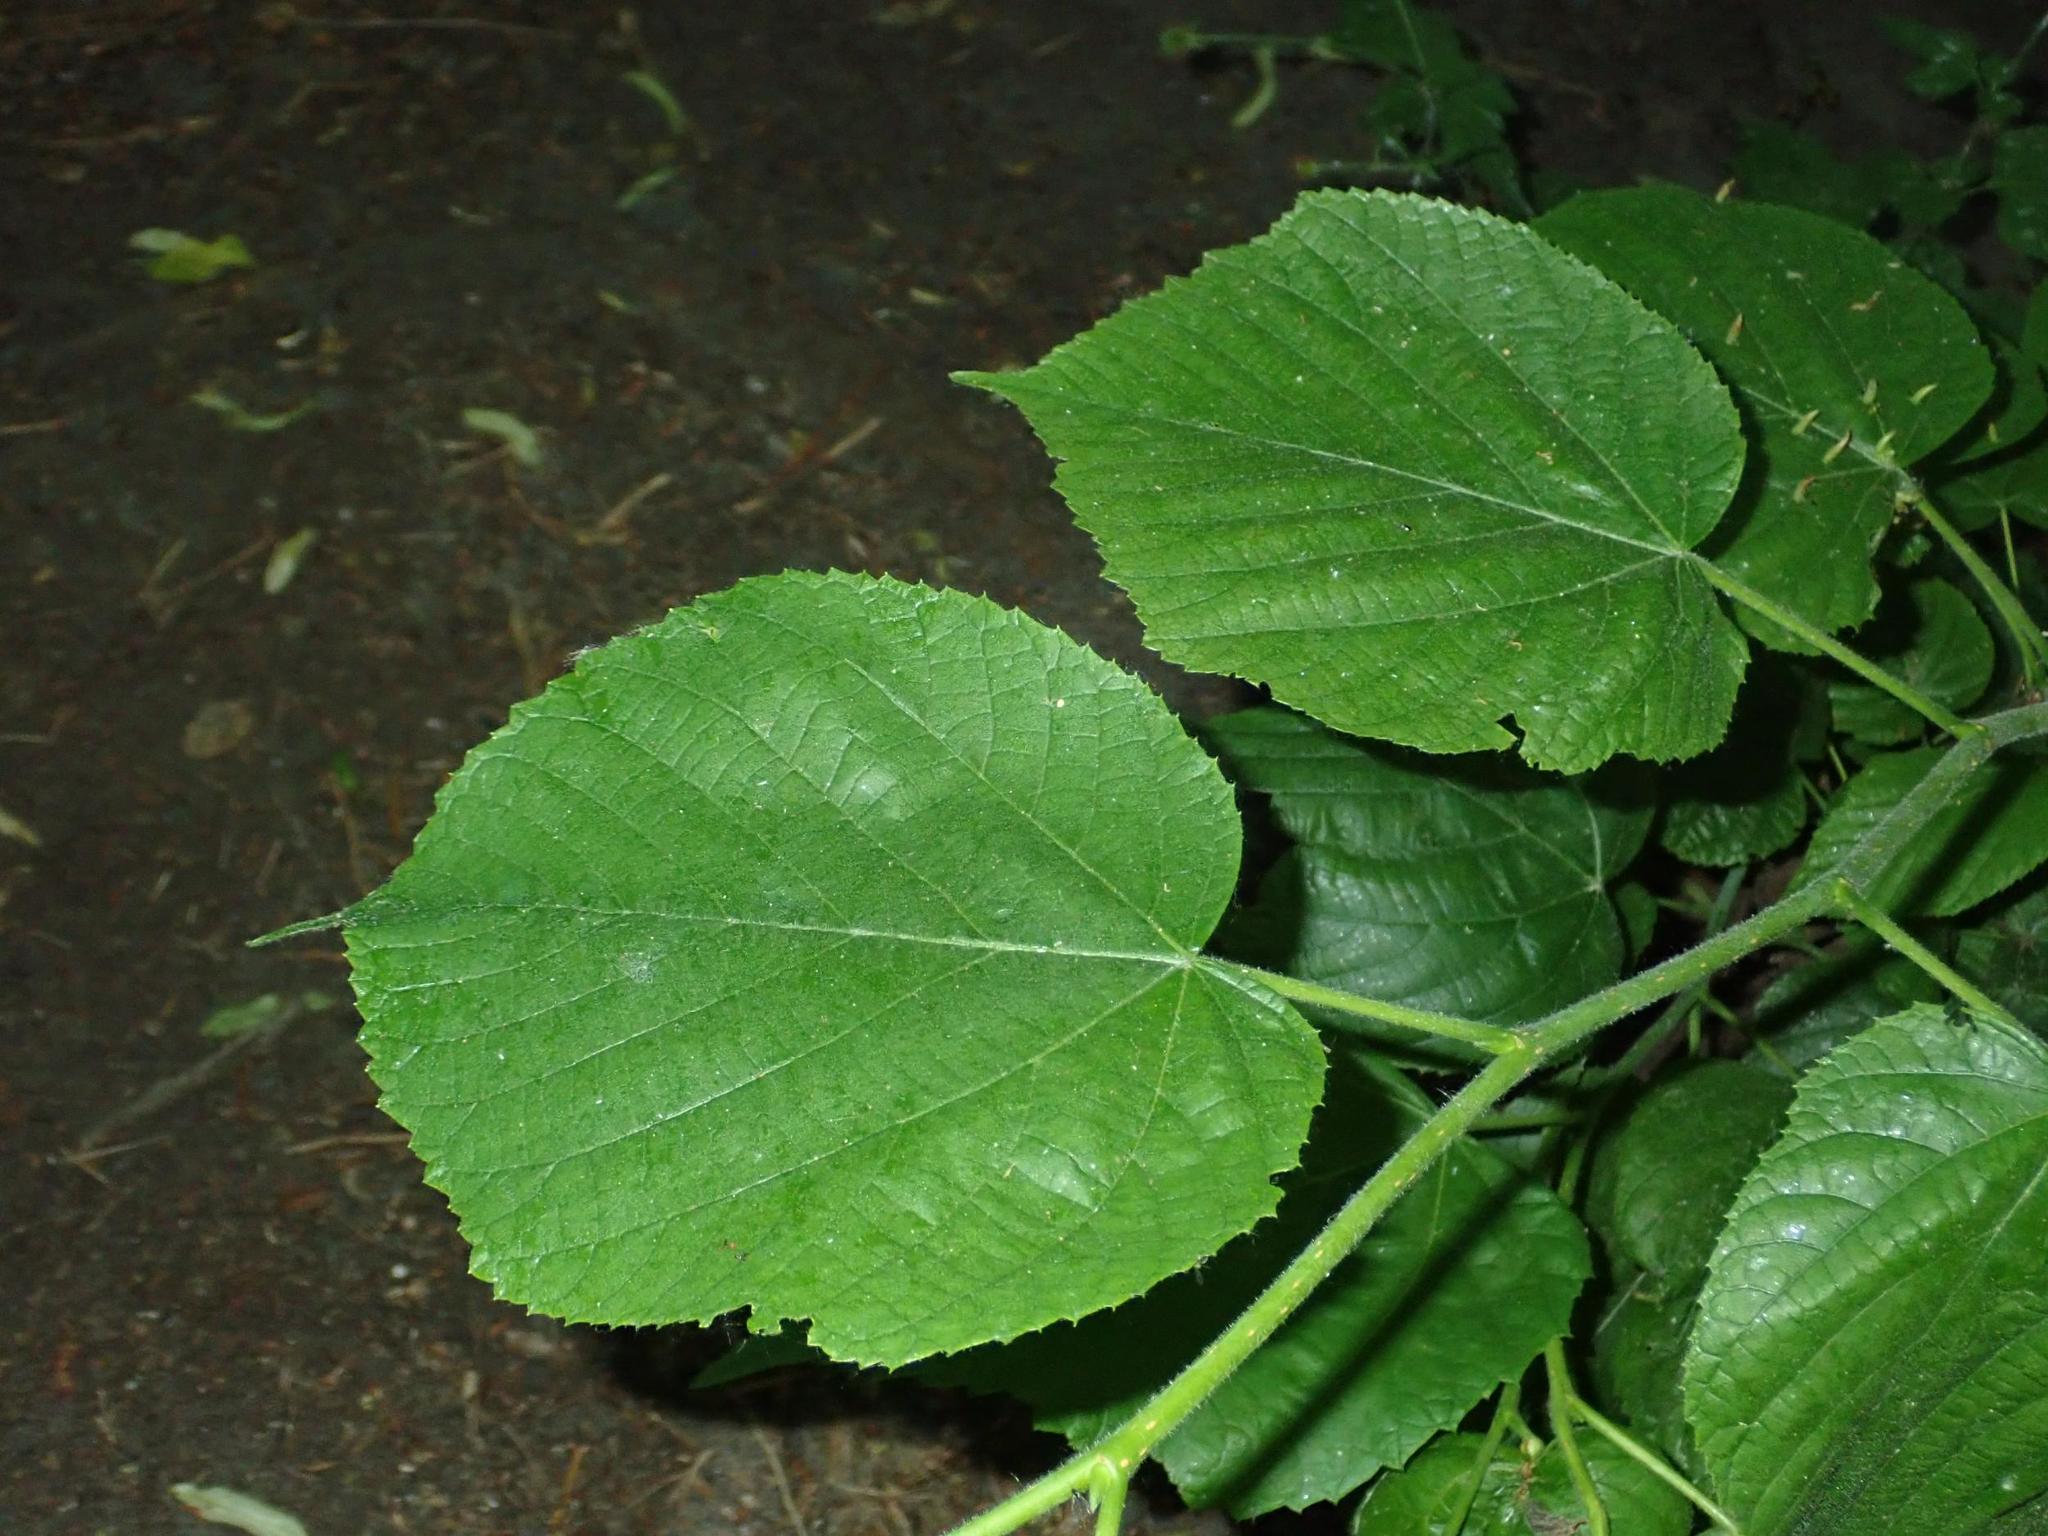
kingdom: Plantae
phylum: Tracheophyta
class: Magnoliopsida
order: Malvales
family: Malvaceae
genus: Tilia
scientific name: Tilia platyphyllos
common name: Large-leaved lime
